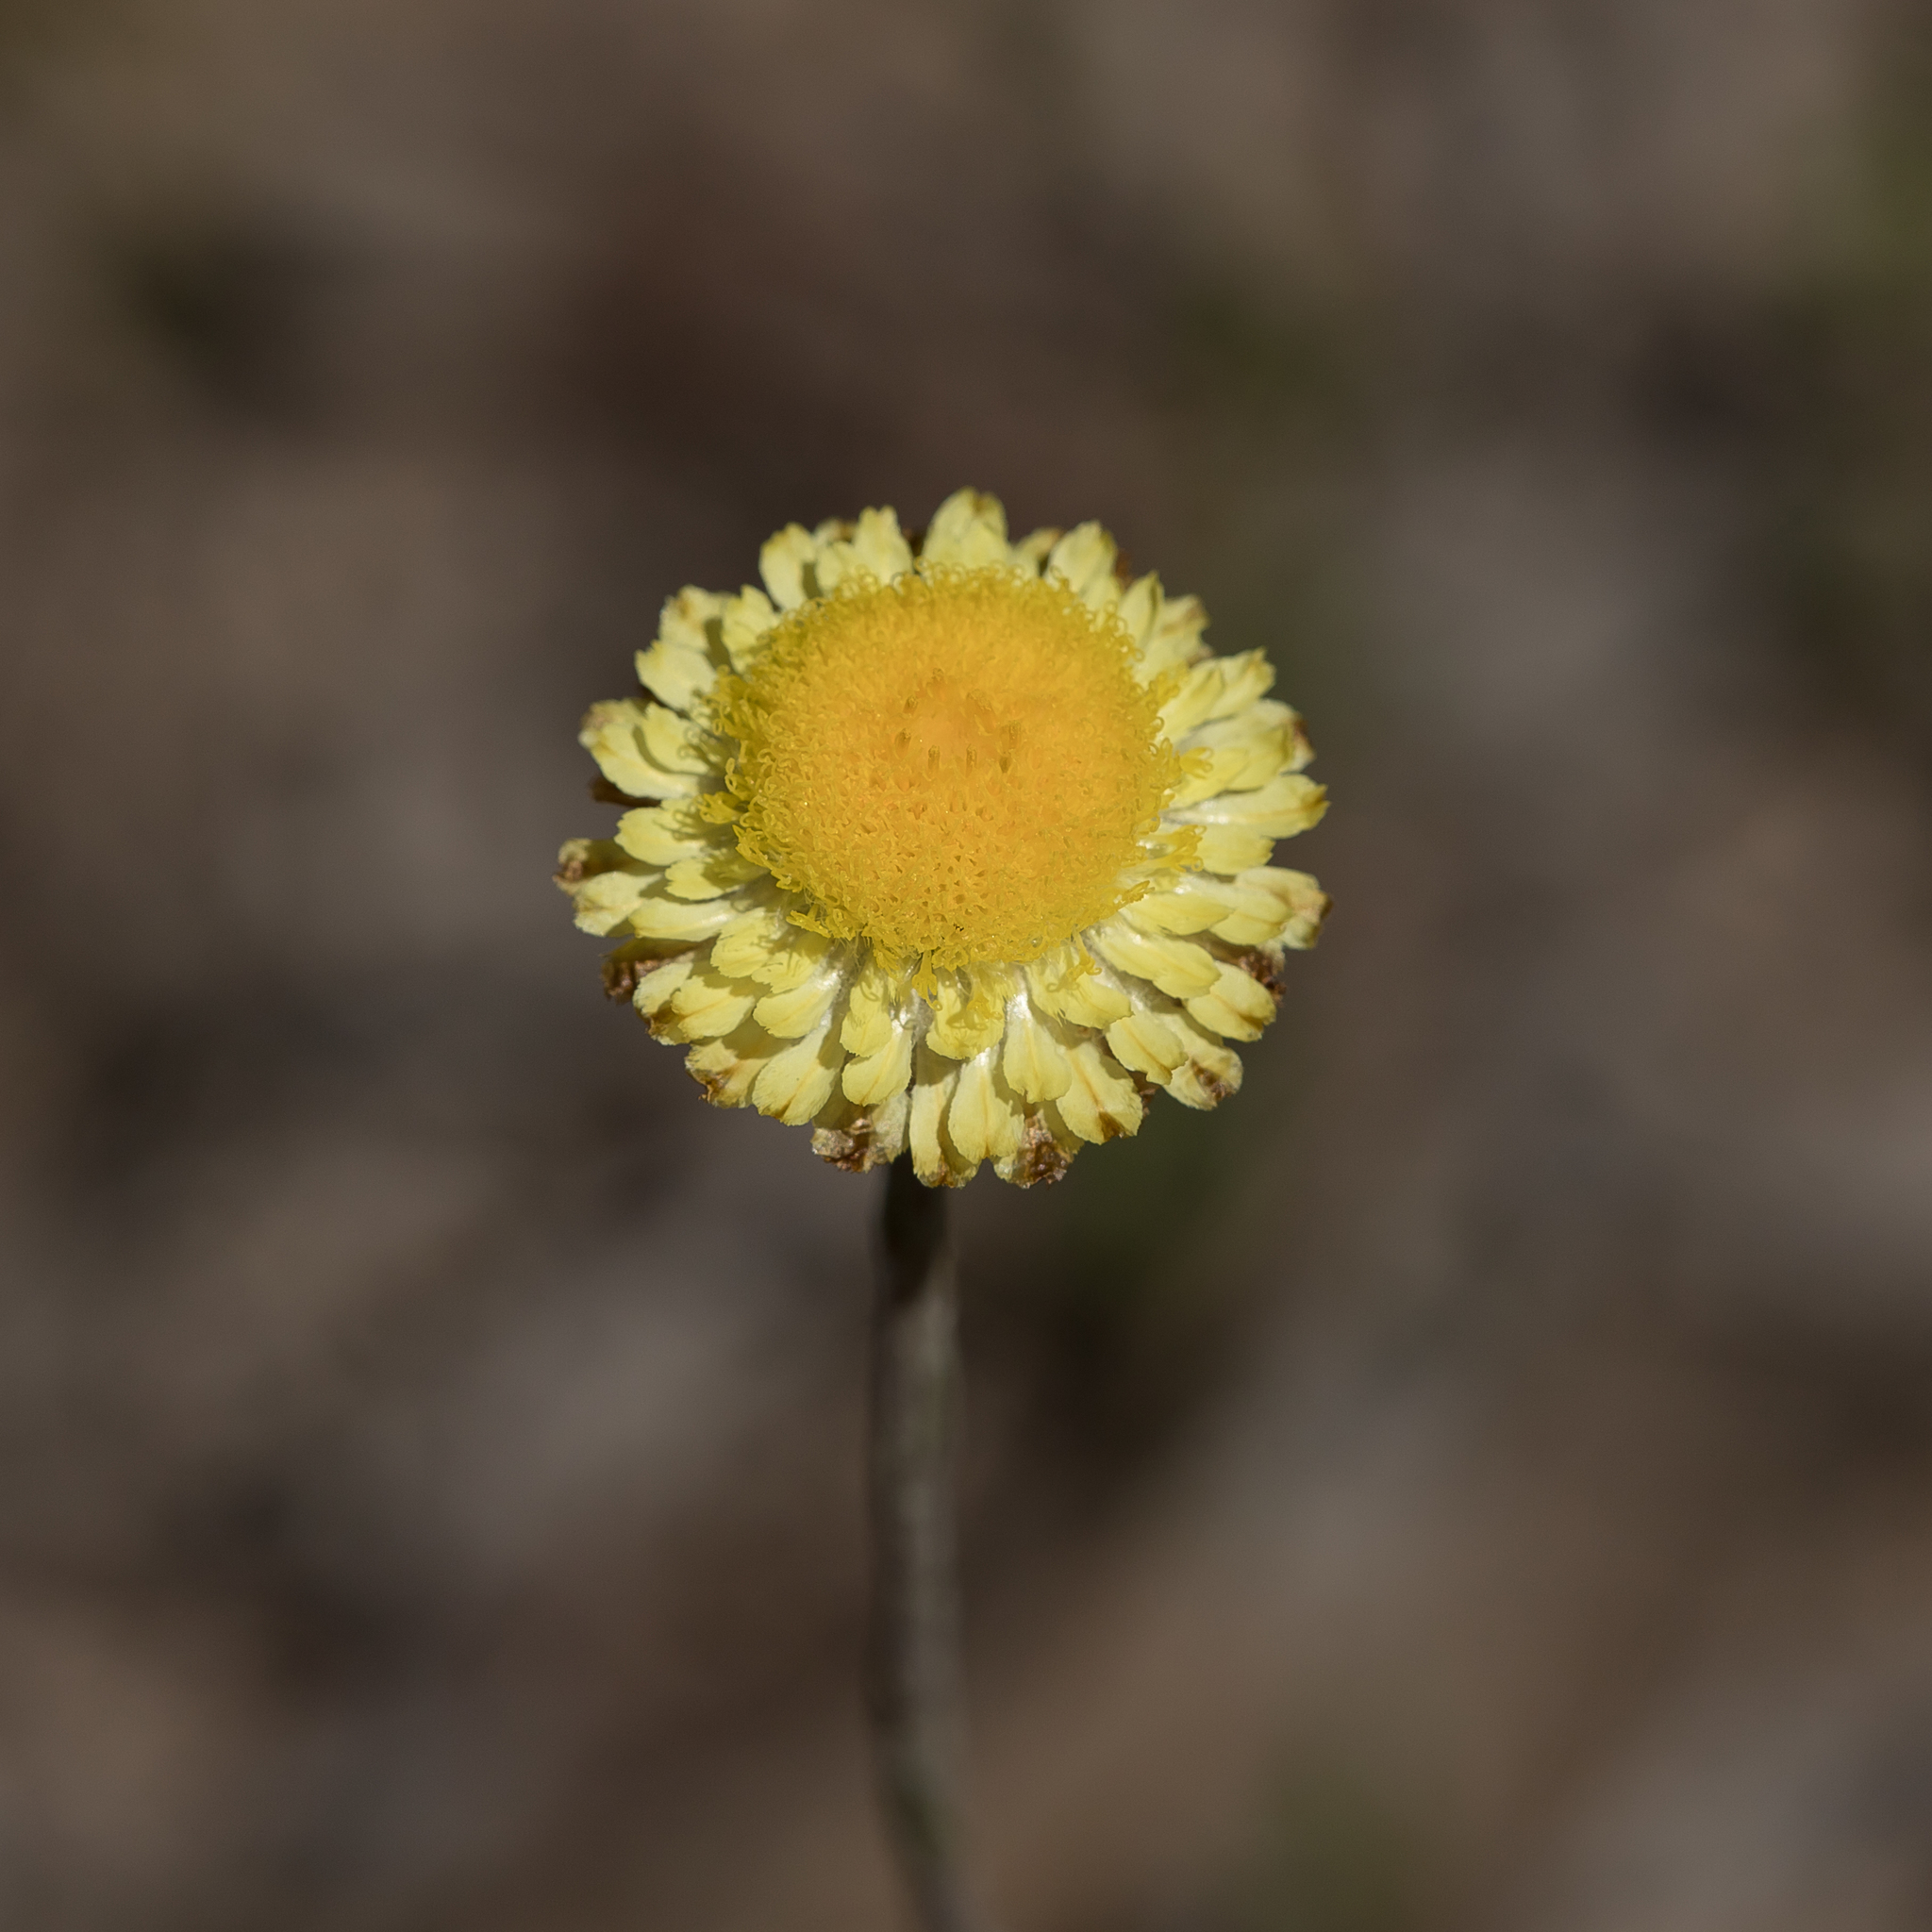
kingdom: Plantae
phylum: Tracheophyta
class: Magnoliopsida
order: Asterales
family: Asteraceae
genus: Coronidium
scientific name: Coronidium scorpioides
